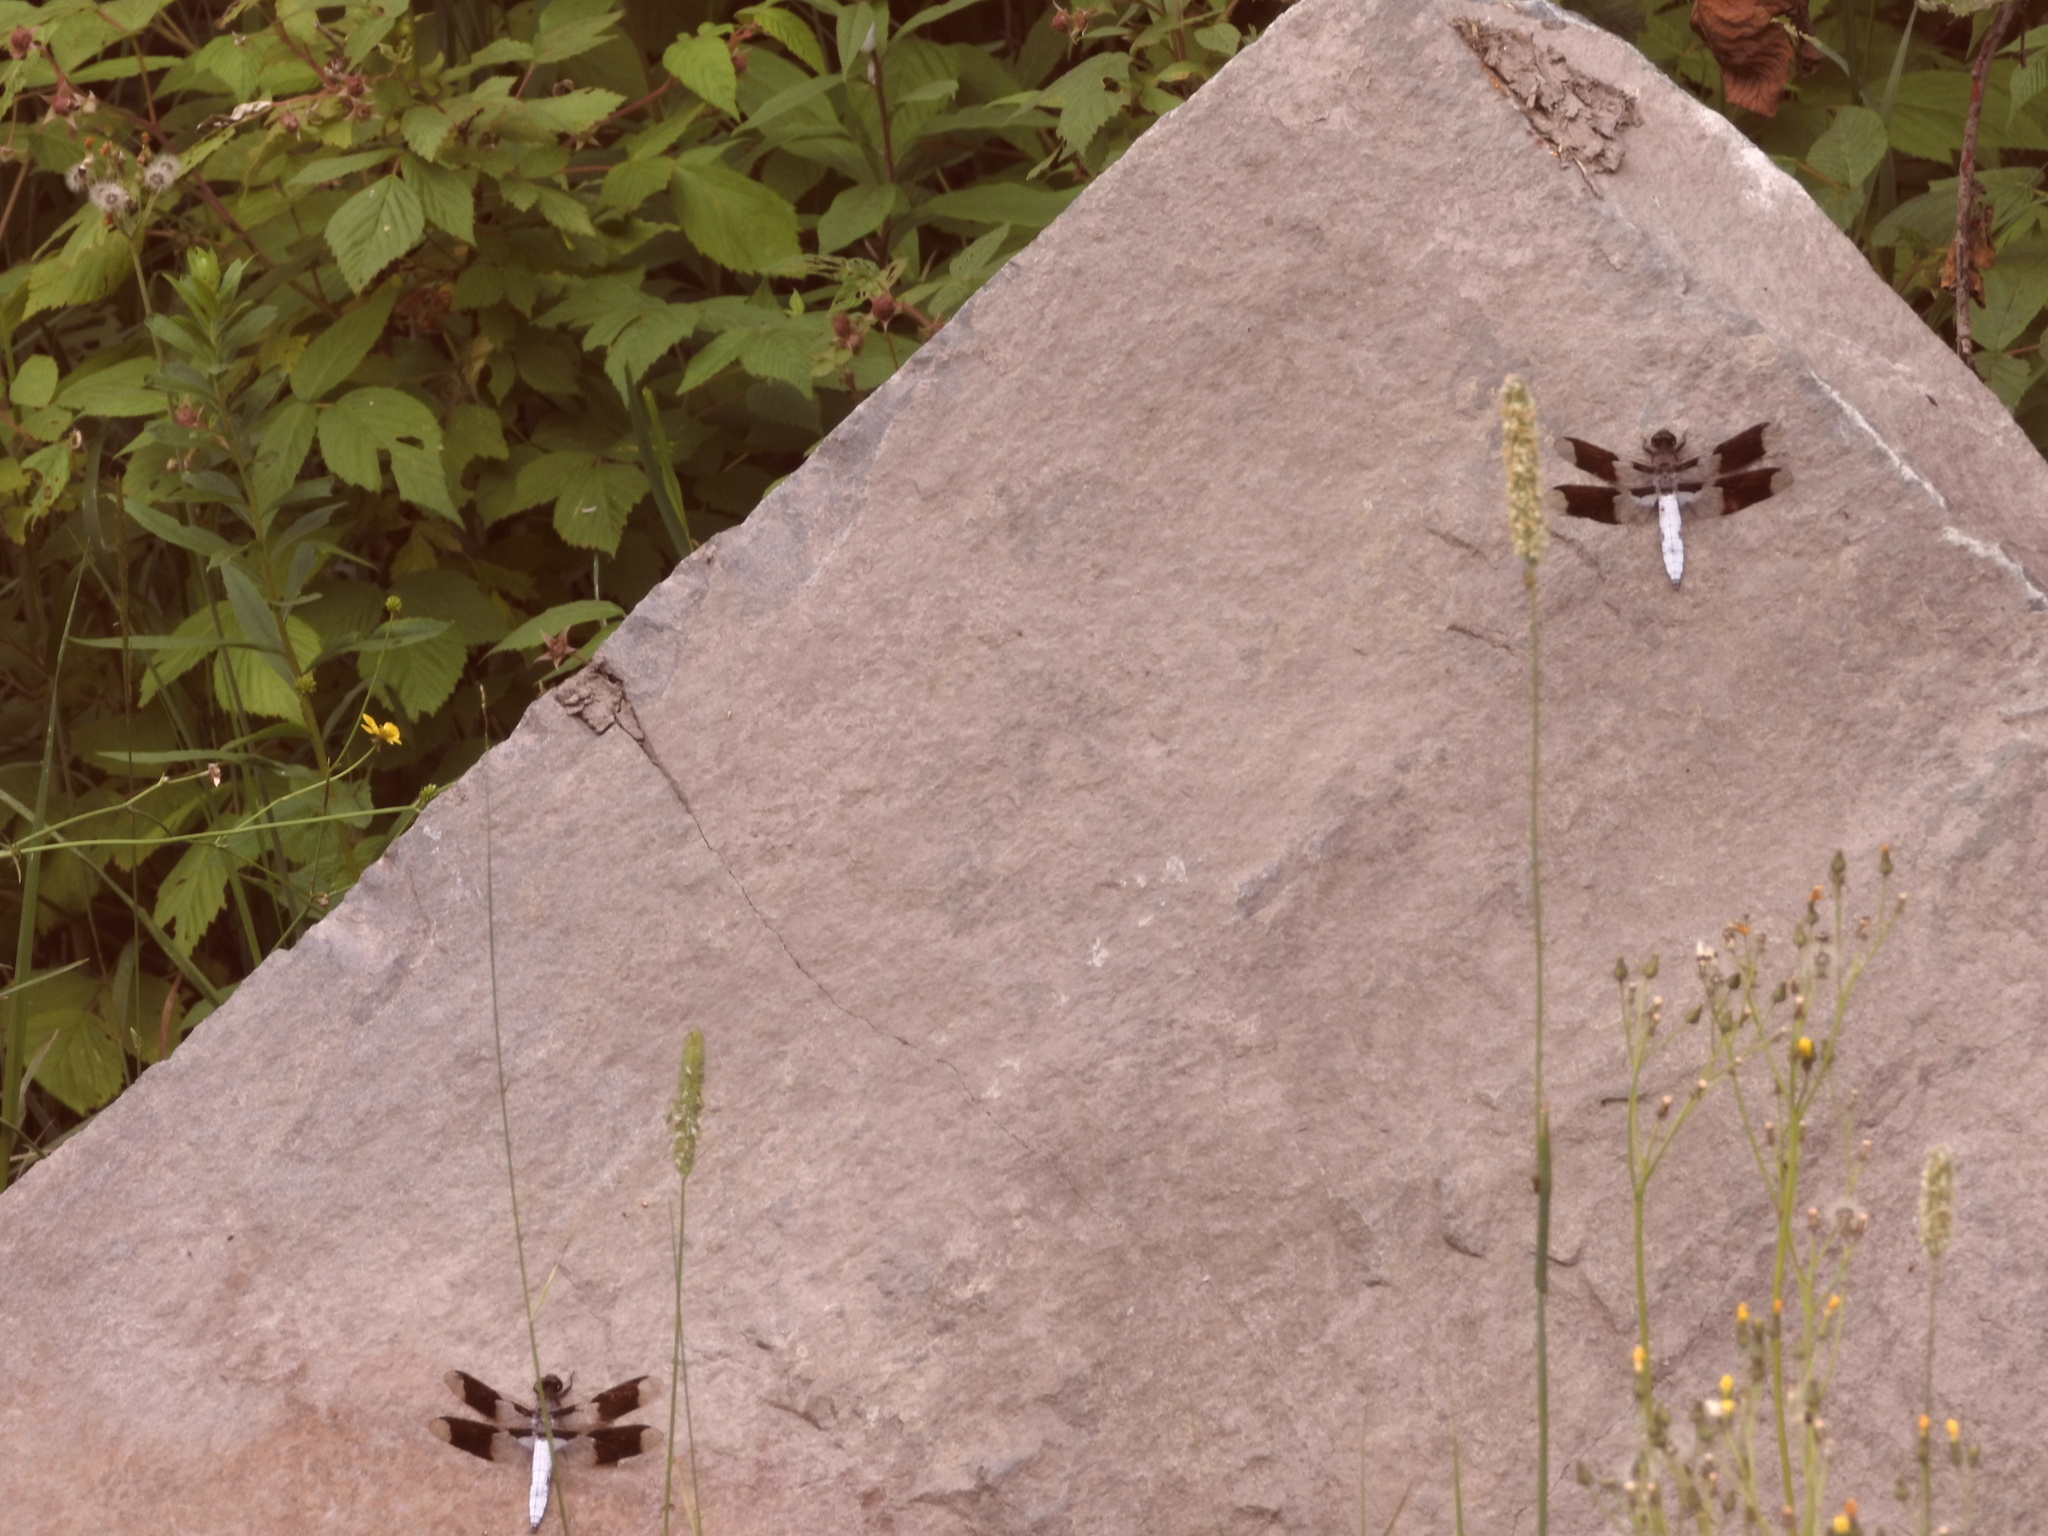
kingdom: Animalia
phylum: Arthropoda
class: Insecta
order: Odonata
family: Libellulidae
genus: Plathemis
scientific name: Plathemis lydia
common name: Common whitetail
